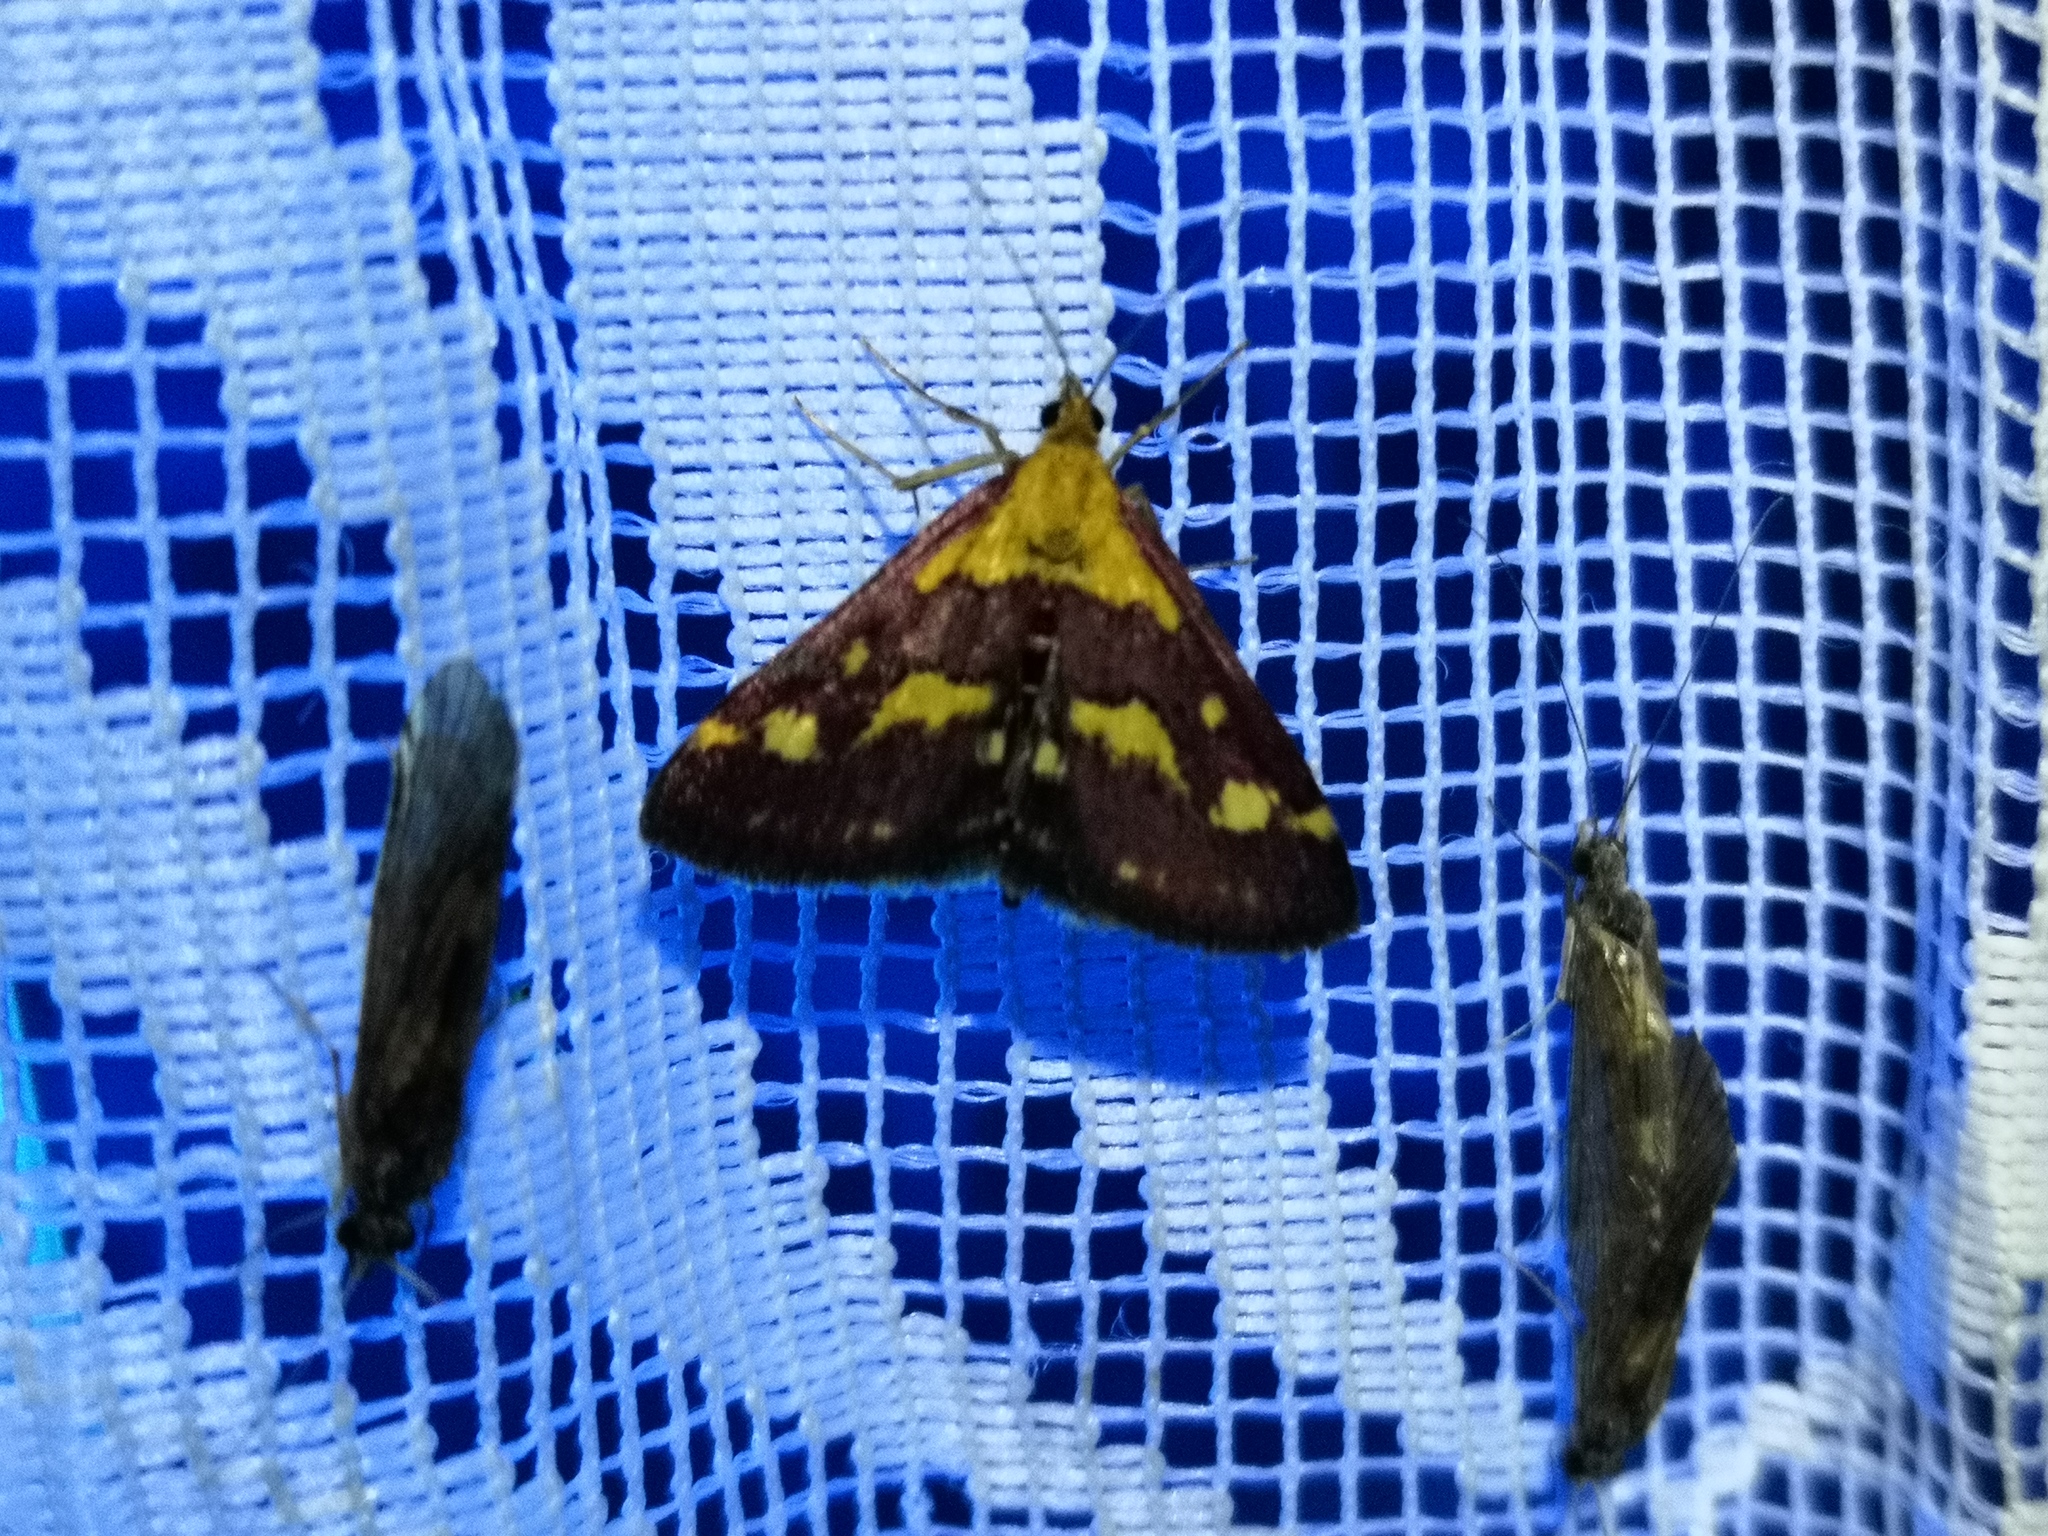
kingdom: Animalia
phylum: Arthropoda
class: Insecta
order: Lepidoptera
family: Crambidae
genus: Pyrausta
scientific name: Pyrausta purpuralis
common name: Common purple & gold
